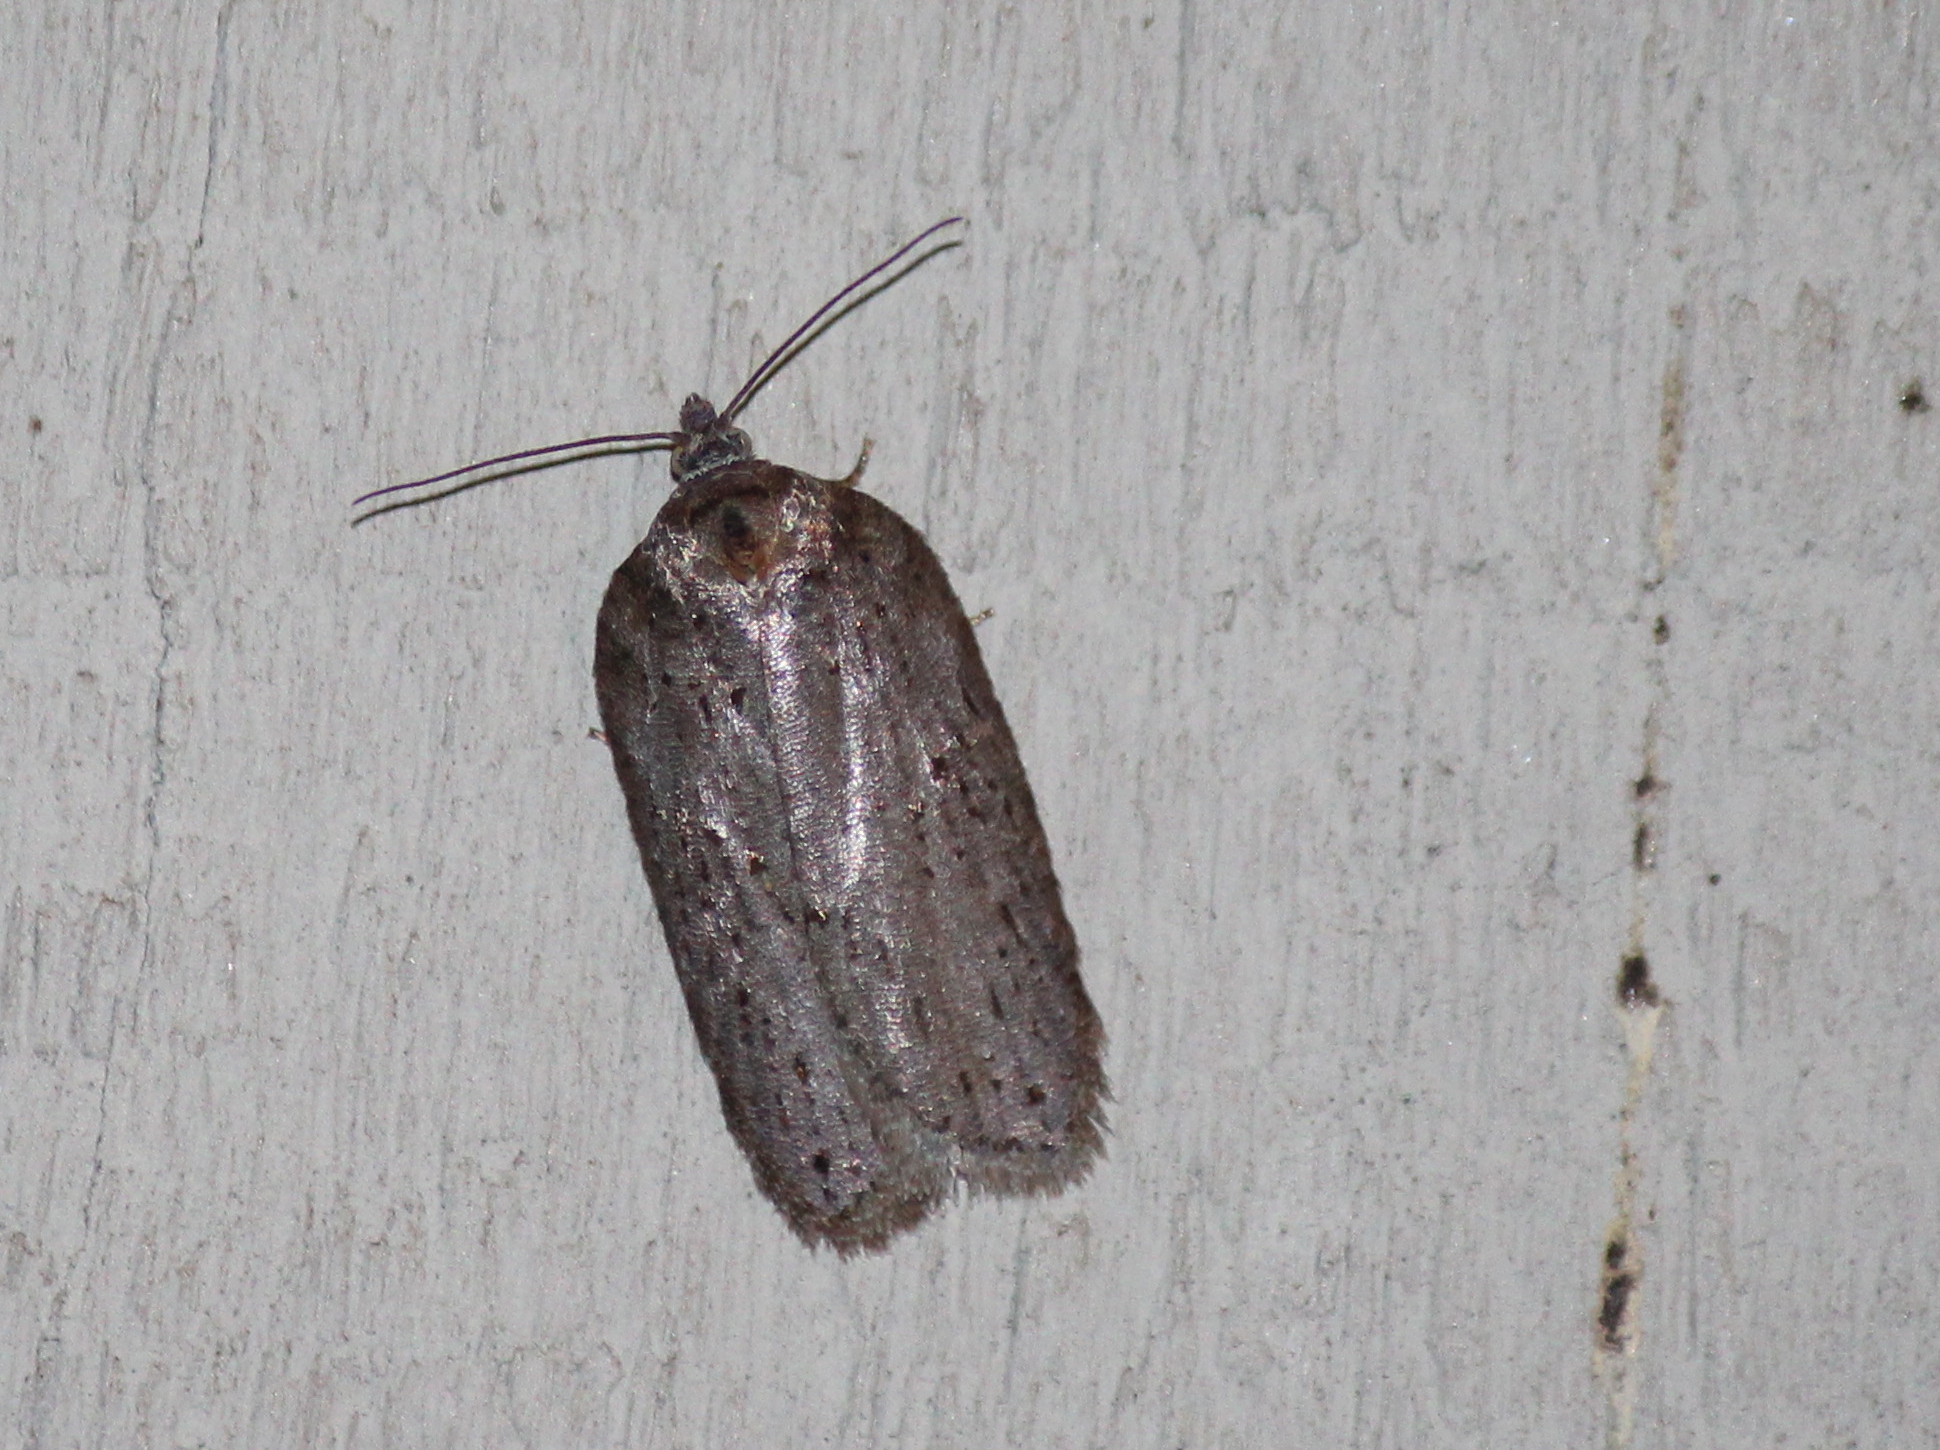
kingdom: Animalia
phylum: Arthropoda
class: Insecta
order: Lepidoptera
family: Tortricidae
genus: Acleris
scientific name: Acleris busckana
